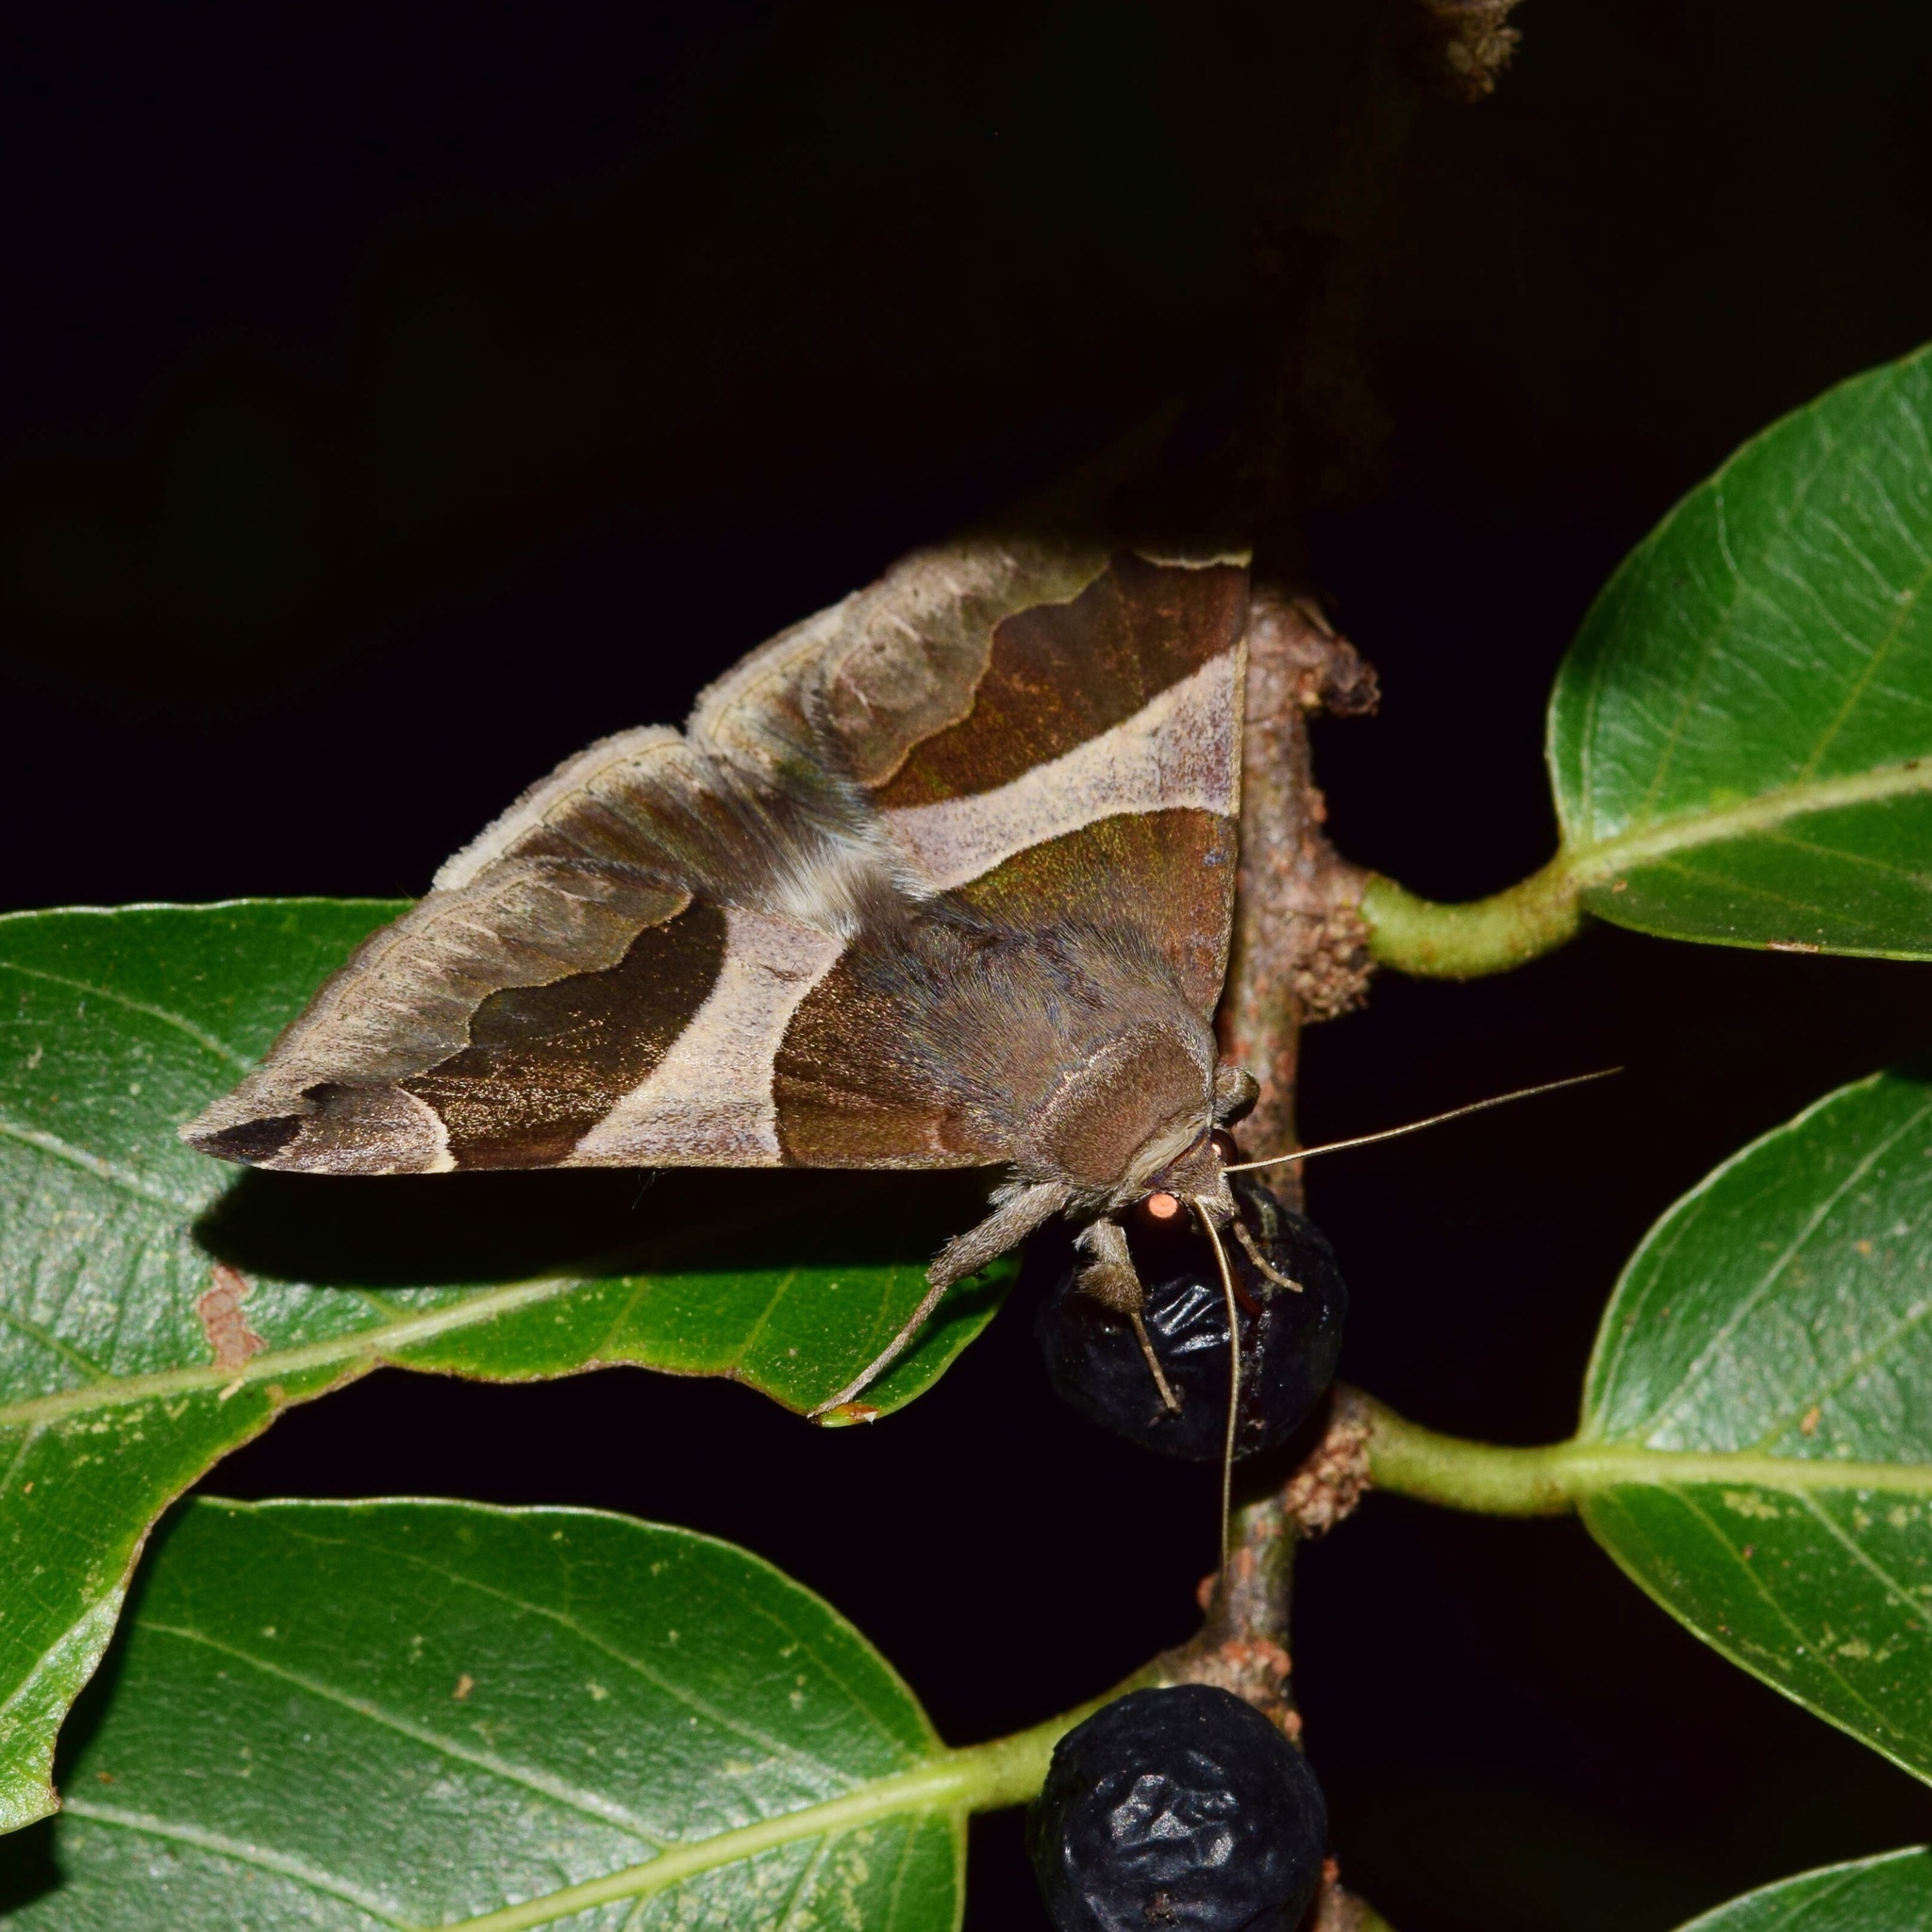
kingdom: Animalia
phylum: Arthropoda
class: Insecta
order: Lepidoptera
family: Erebidae
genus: Dysgonia
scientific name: Dysgonia torrida
